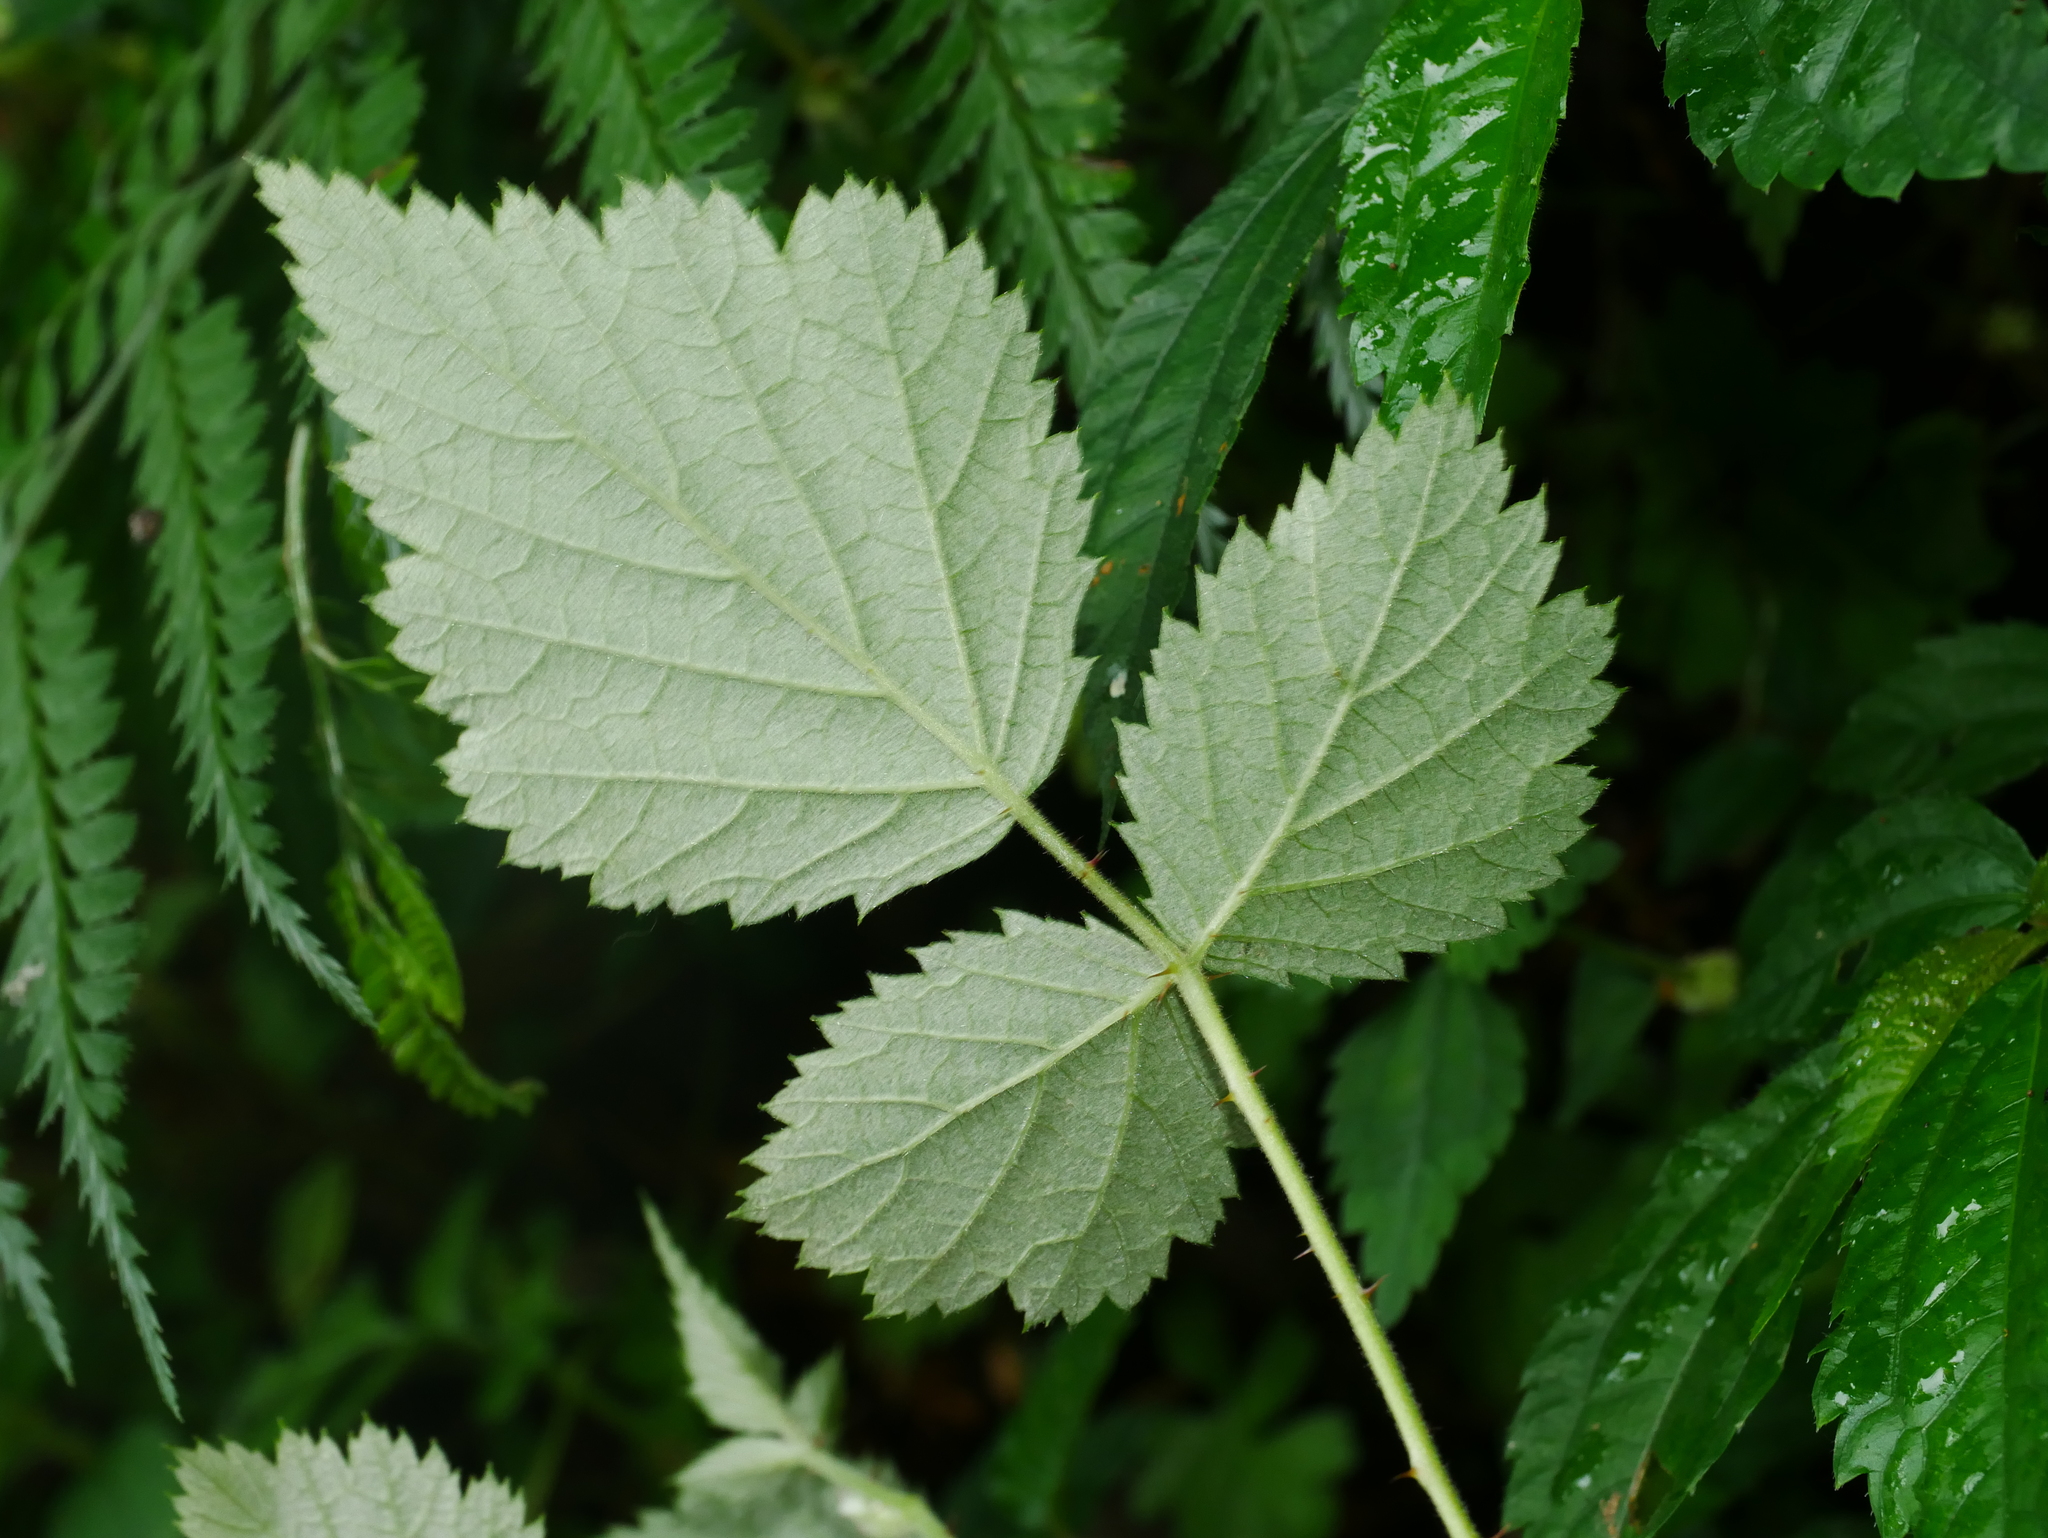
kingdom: Plantae
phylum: Tracheophyta
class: Magnoliopsida
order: Rosales
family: Rosaceae
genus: Rubus
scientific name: Rubus parviaraliifolius
